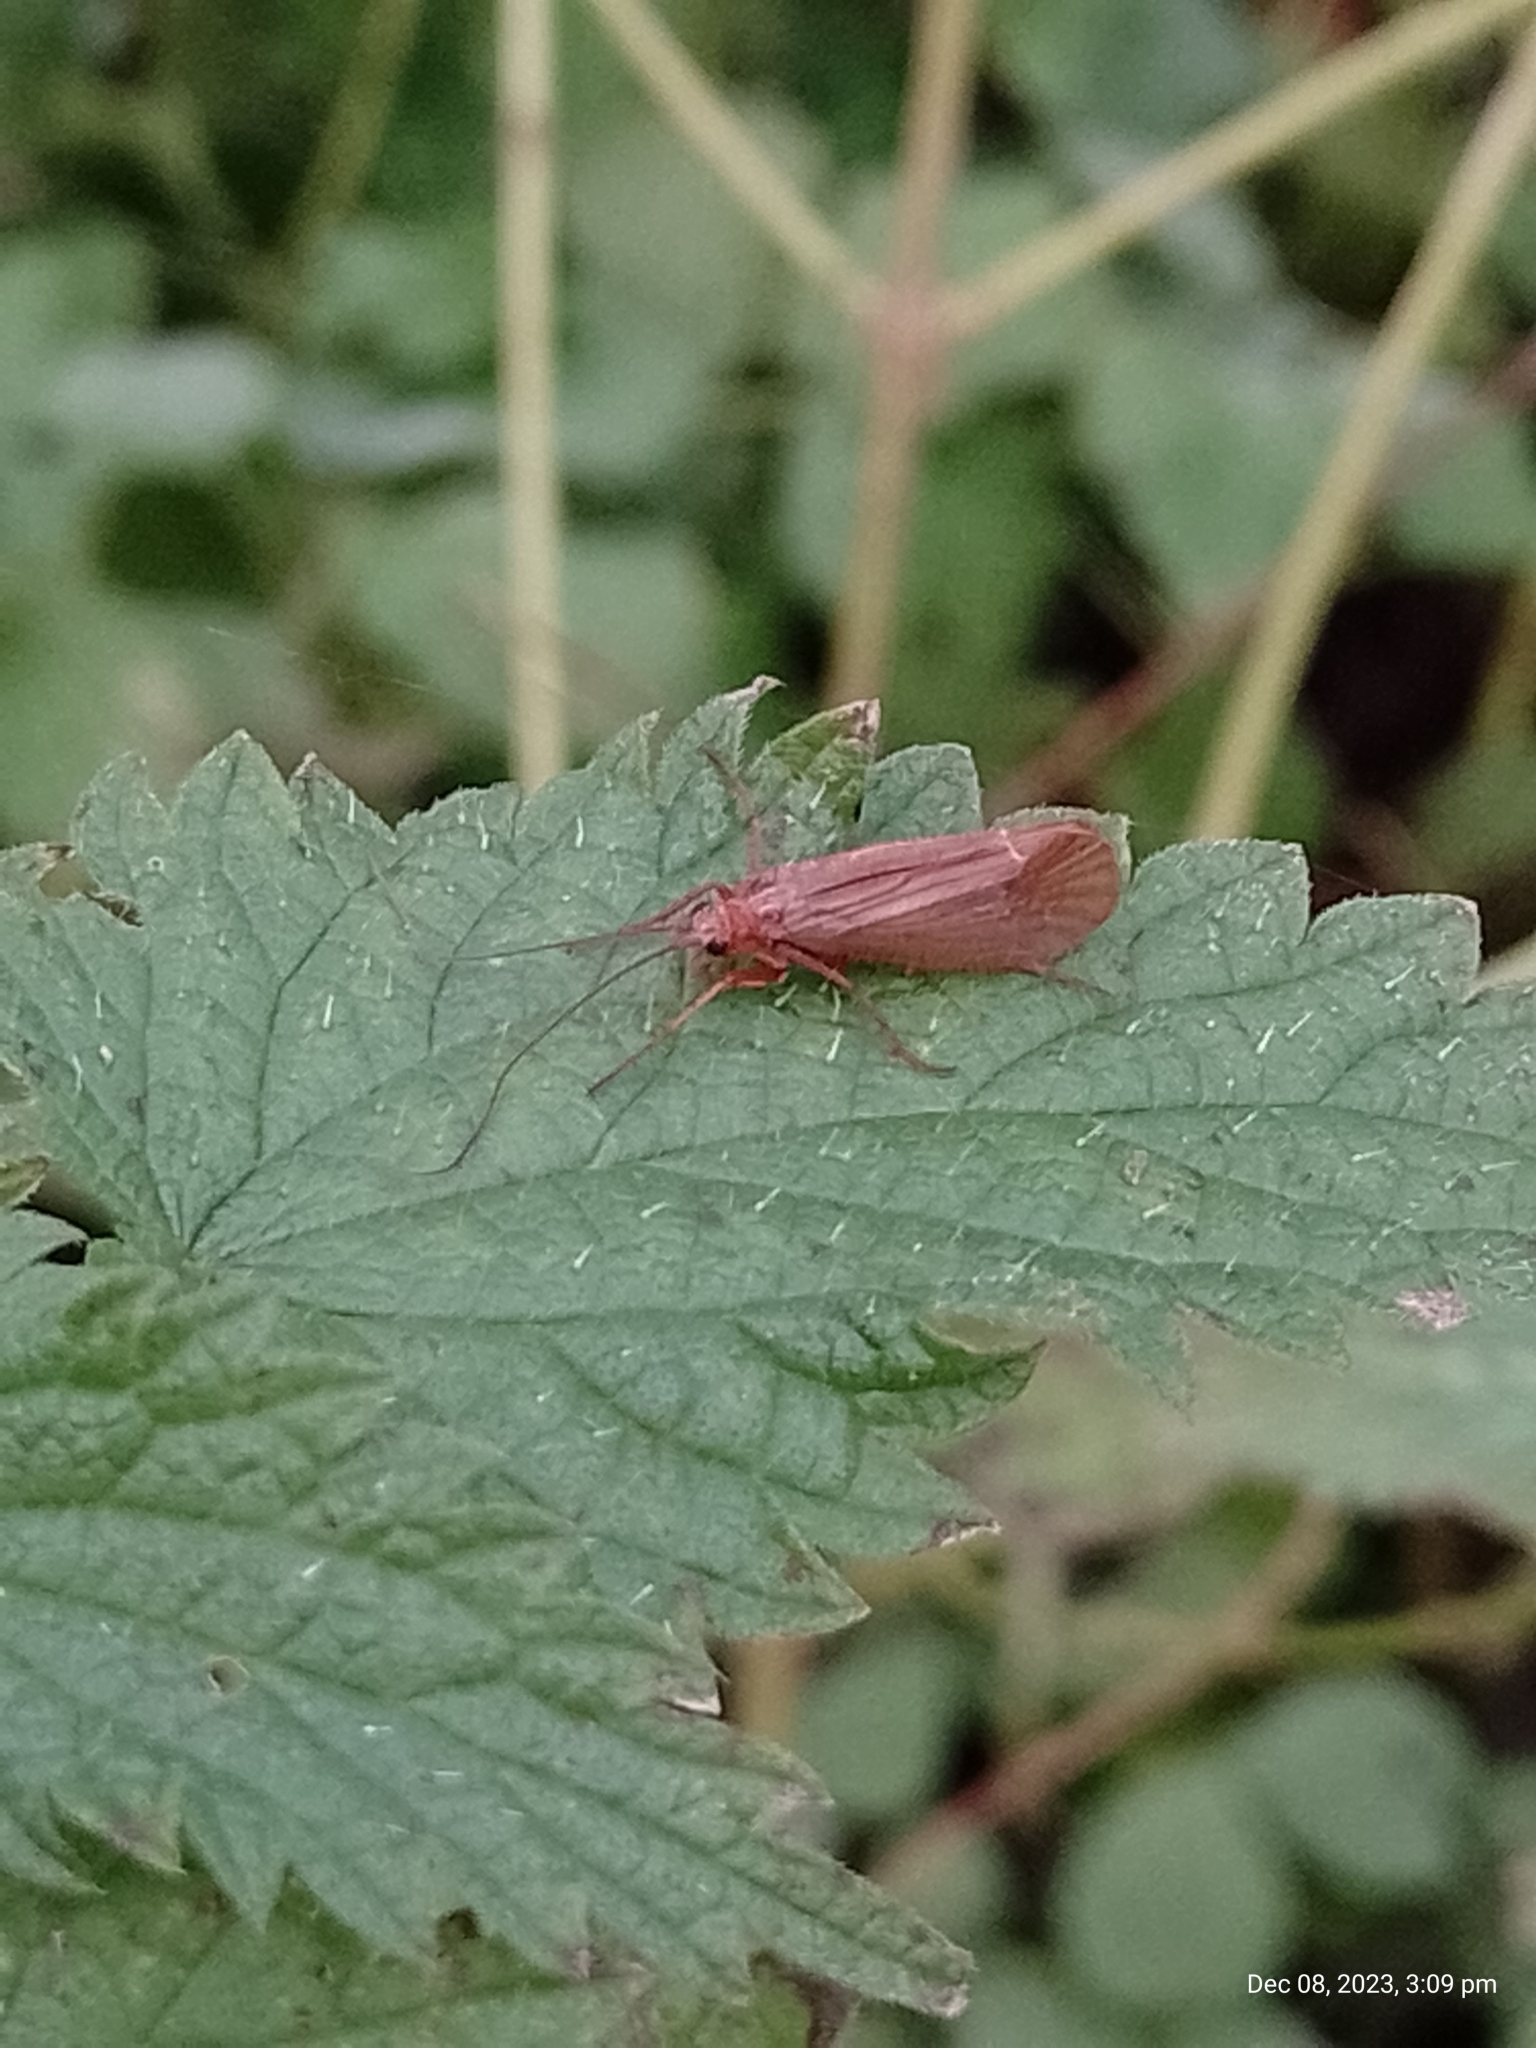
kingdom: Animalia
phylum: Arthropoda
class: Insecta
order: Trichoptera
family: Limnephilidae
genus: Chaetopteryx
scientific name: Chaetopteryx villosa
